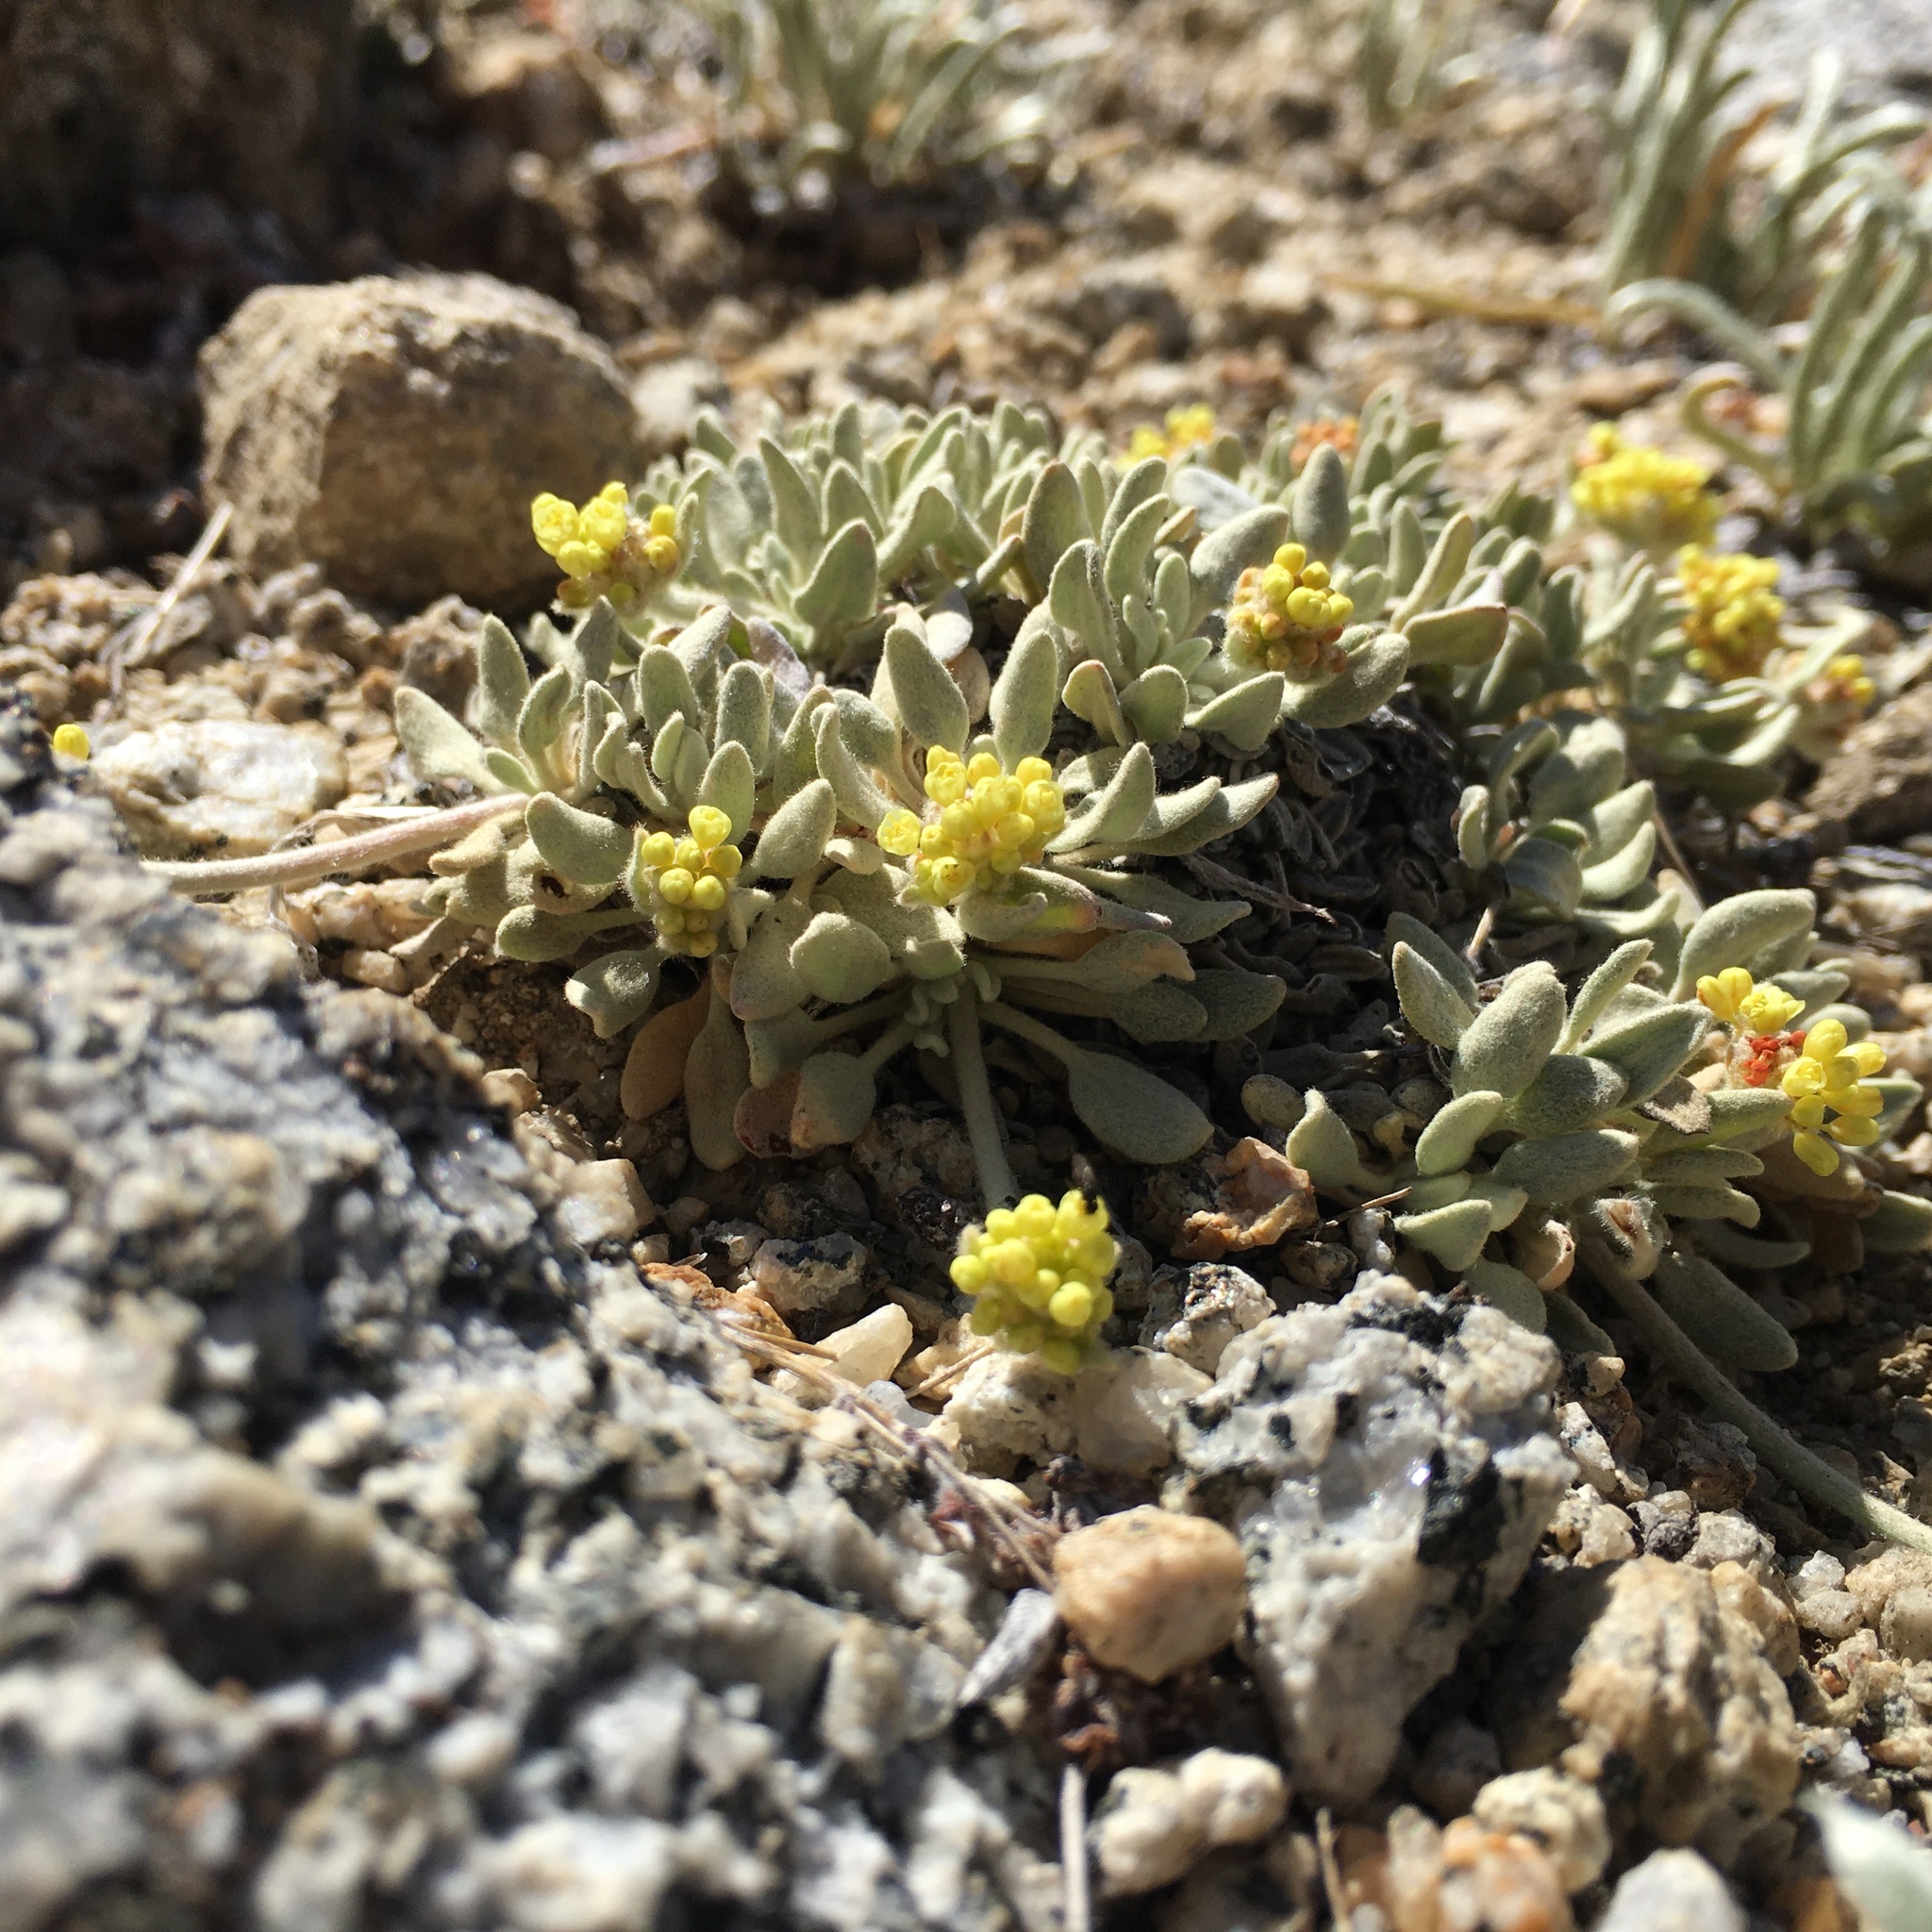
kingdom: Plantae
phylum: Tracheophyta
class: Magnoliopsida
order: Caryophyllales
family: Polygonaceae
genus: Eriogonum
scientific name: Eriogonum incanum
